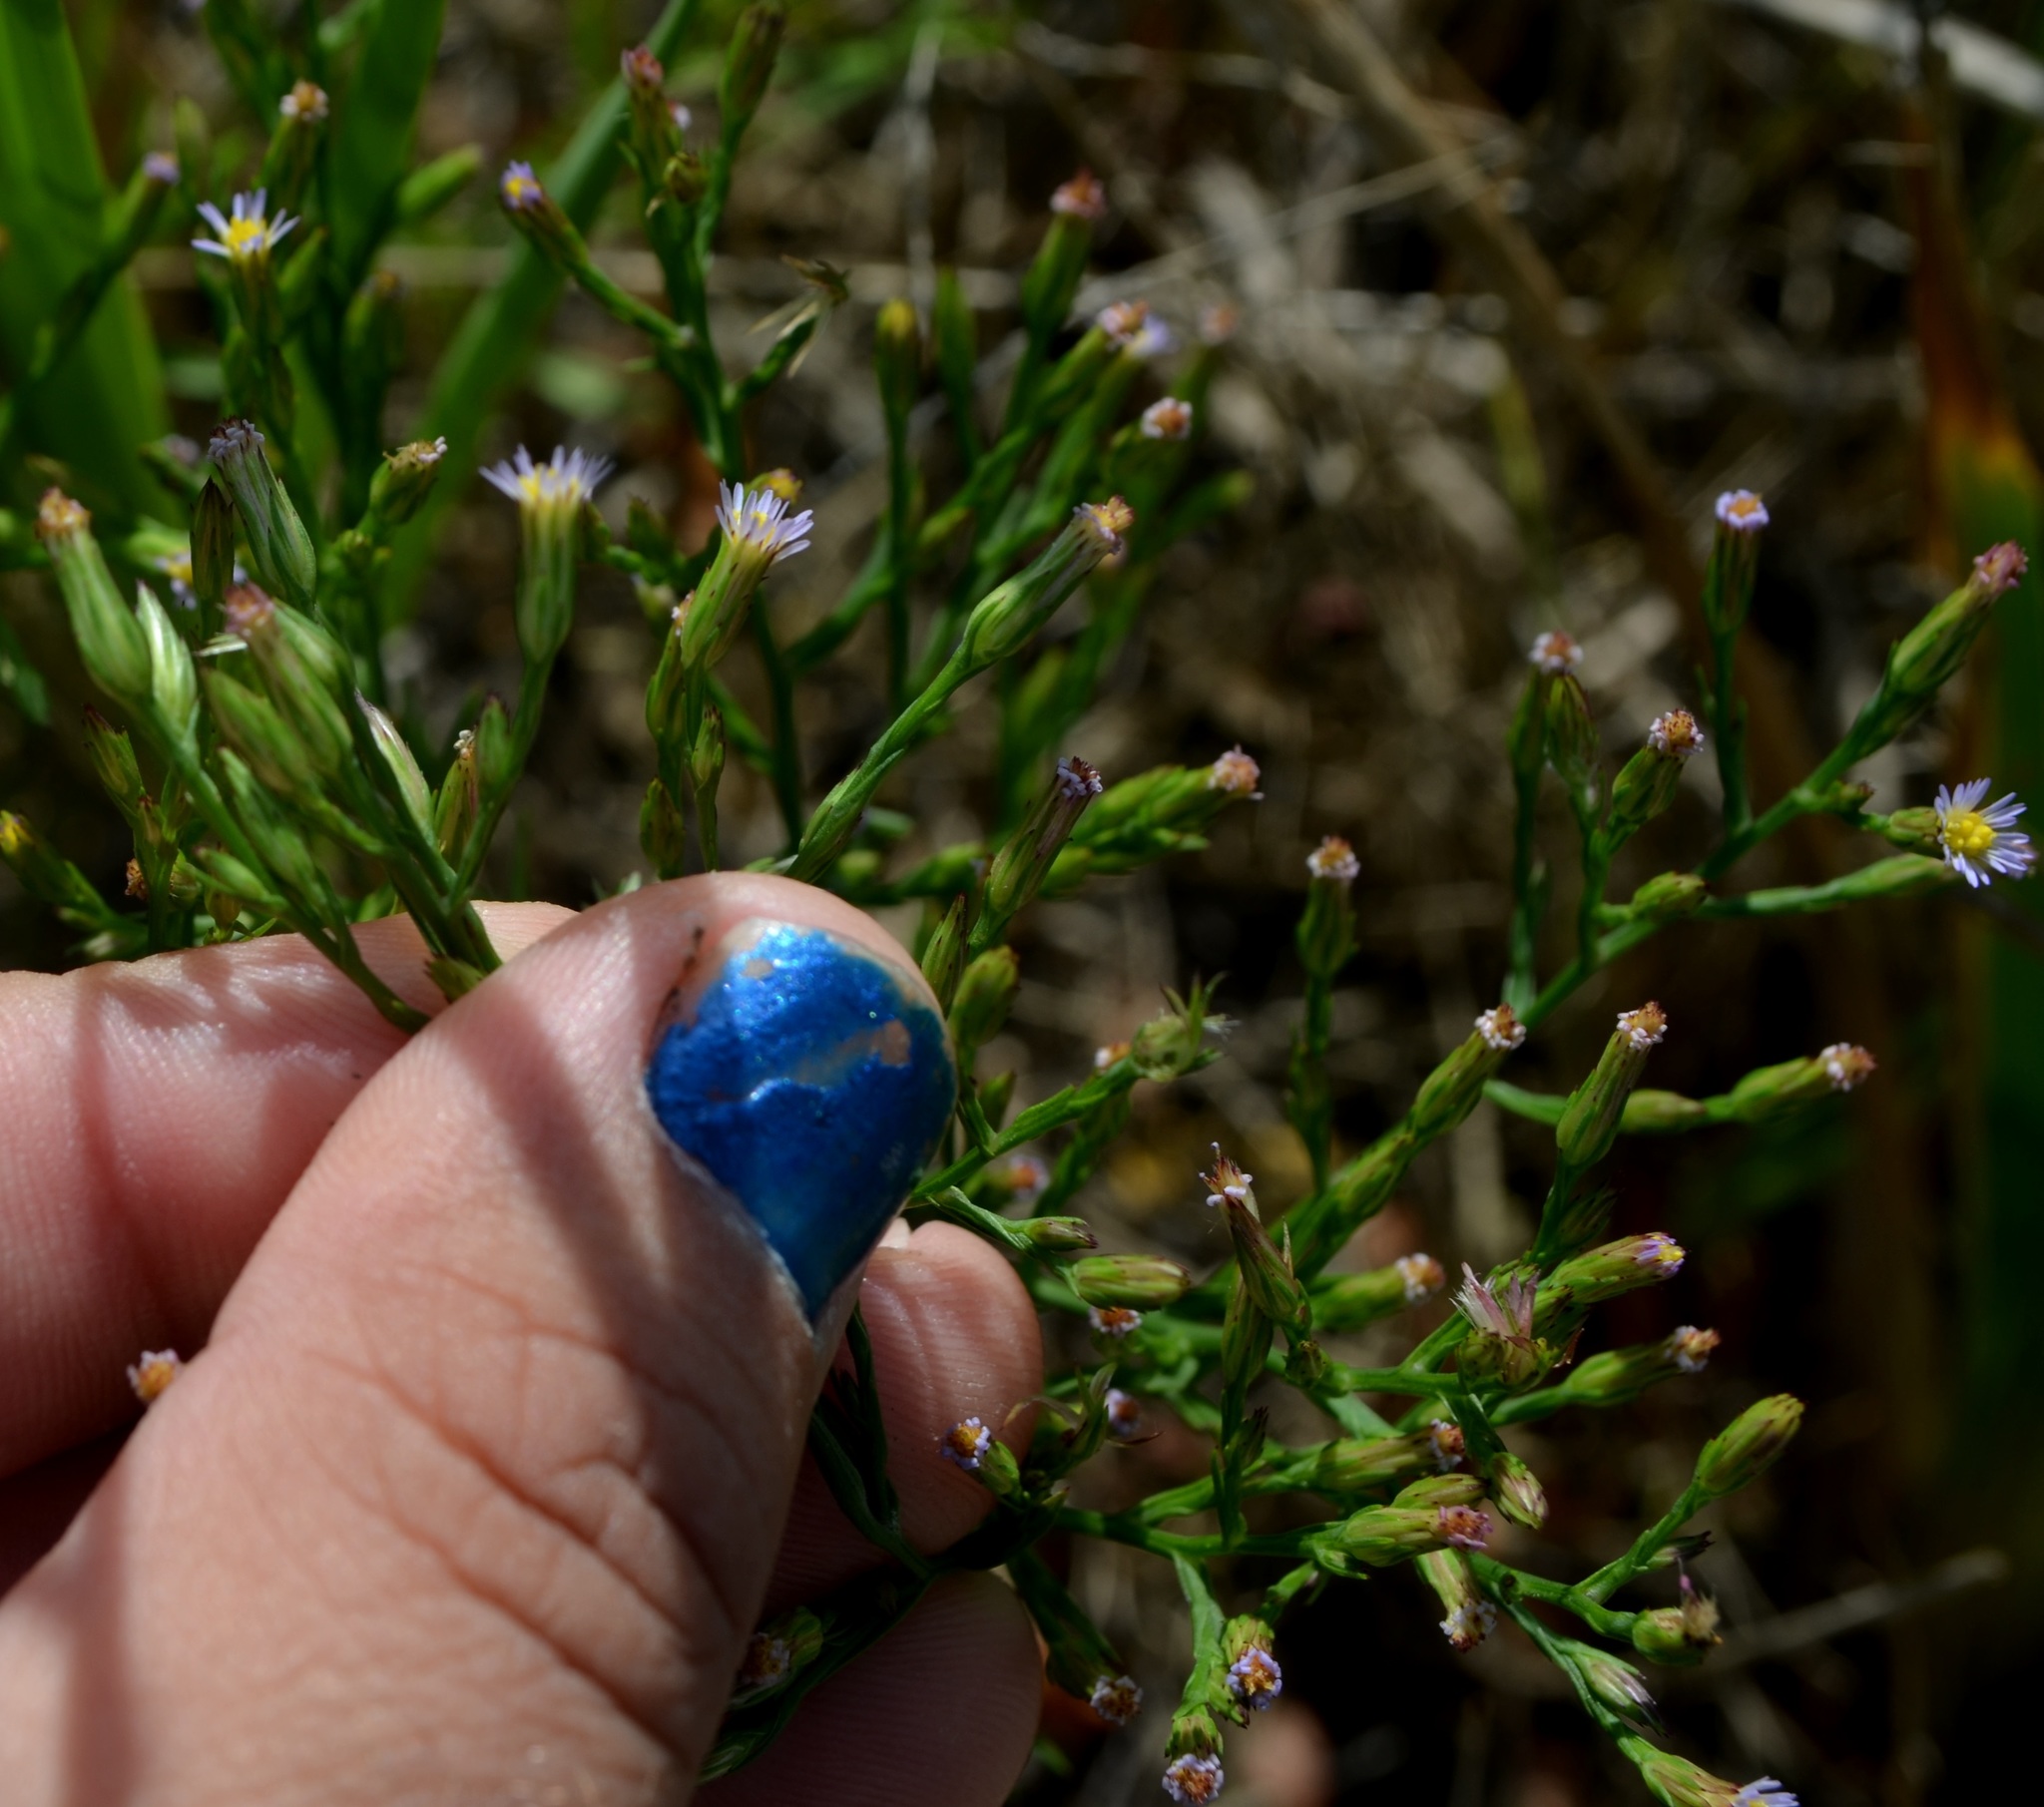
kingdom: Plantae
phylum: Tracheophyta
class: Magnoliopsida
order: Asterales
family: Asteraceae
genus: Symphyotrichum
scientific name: Symphyotrichum subulatum
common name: Annual saltmarsh aster
